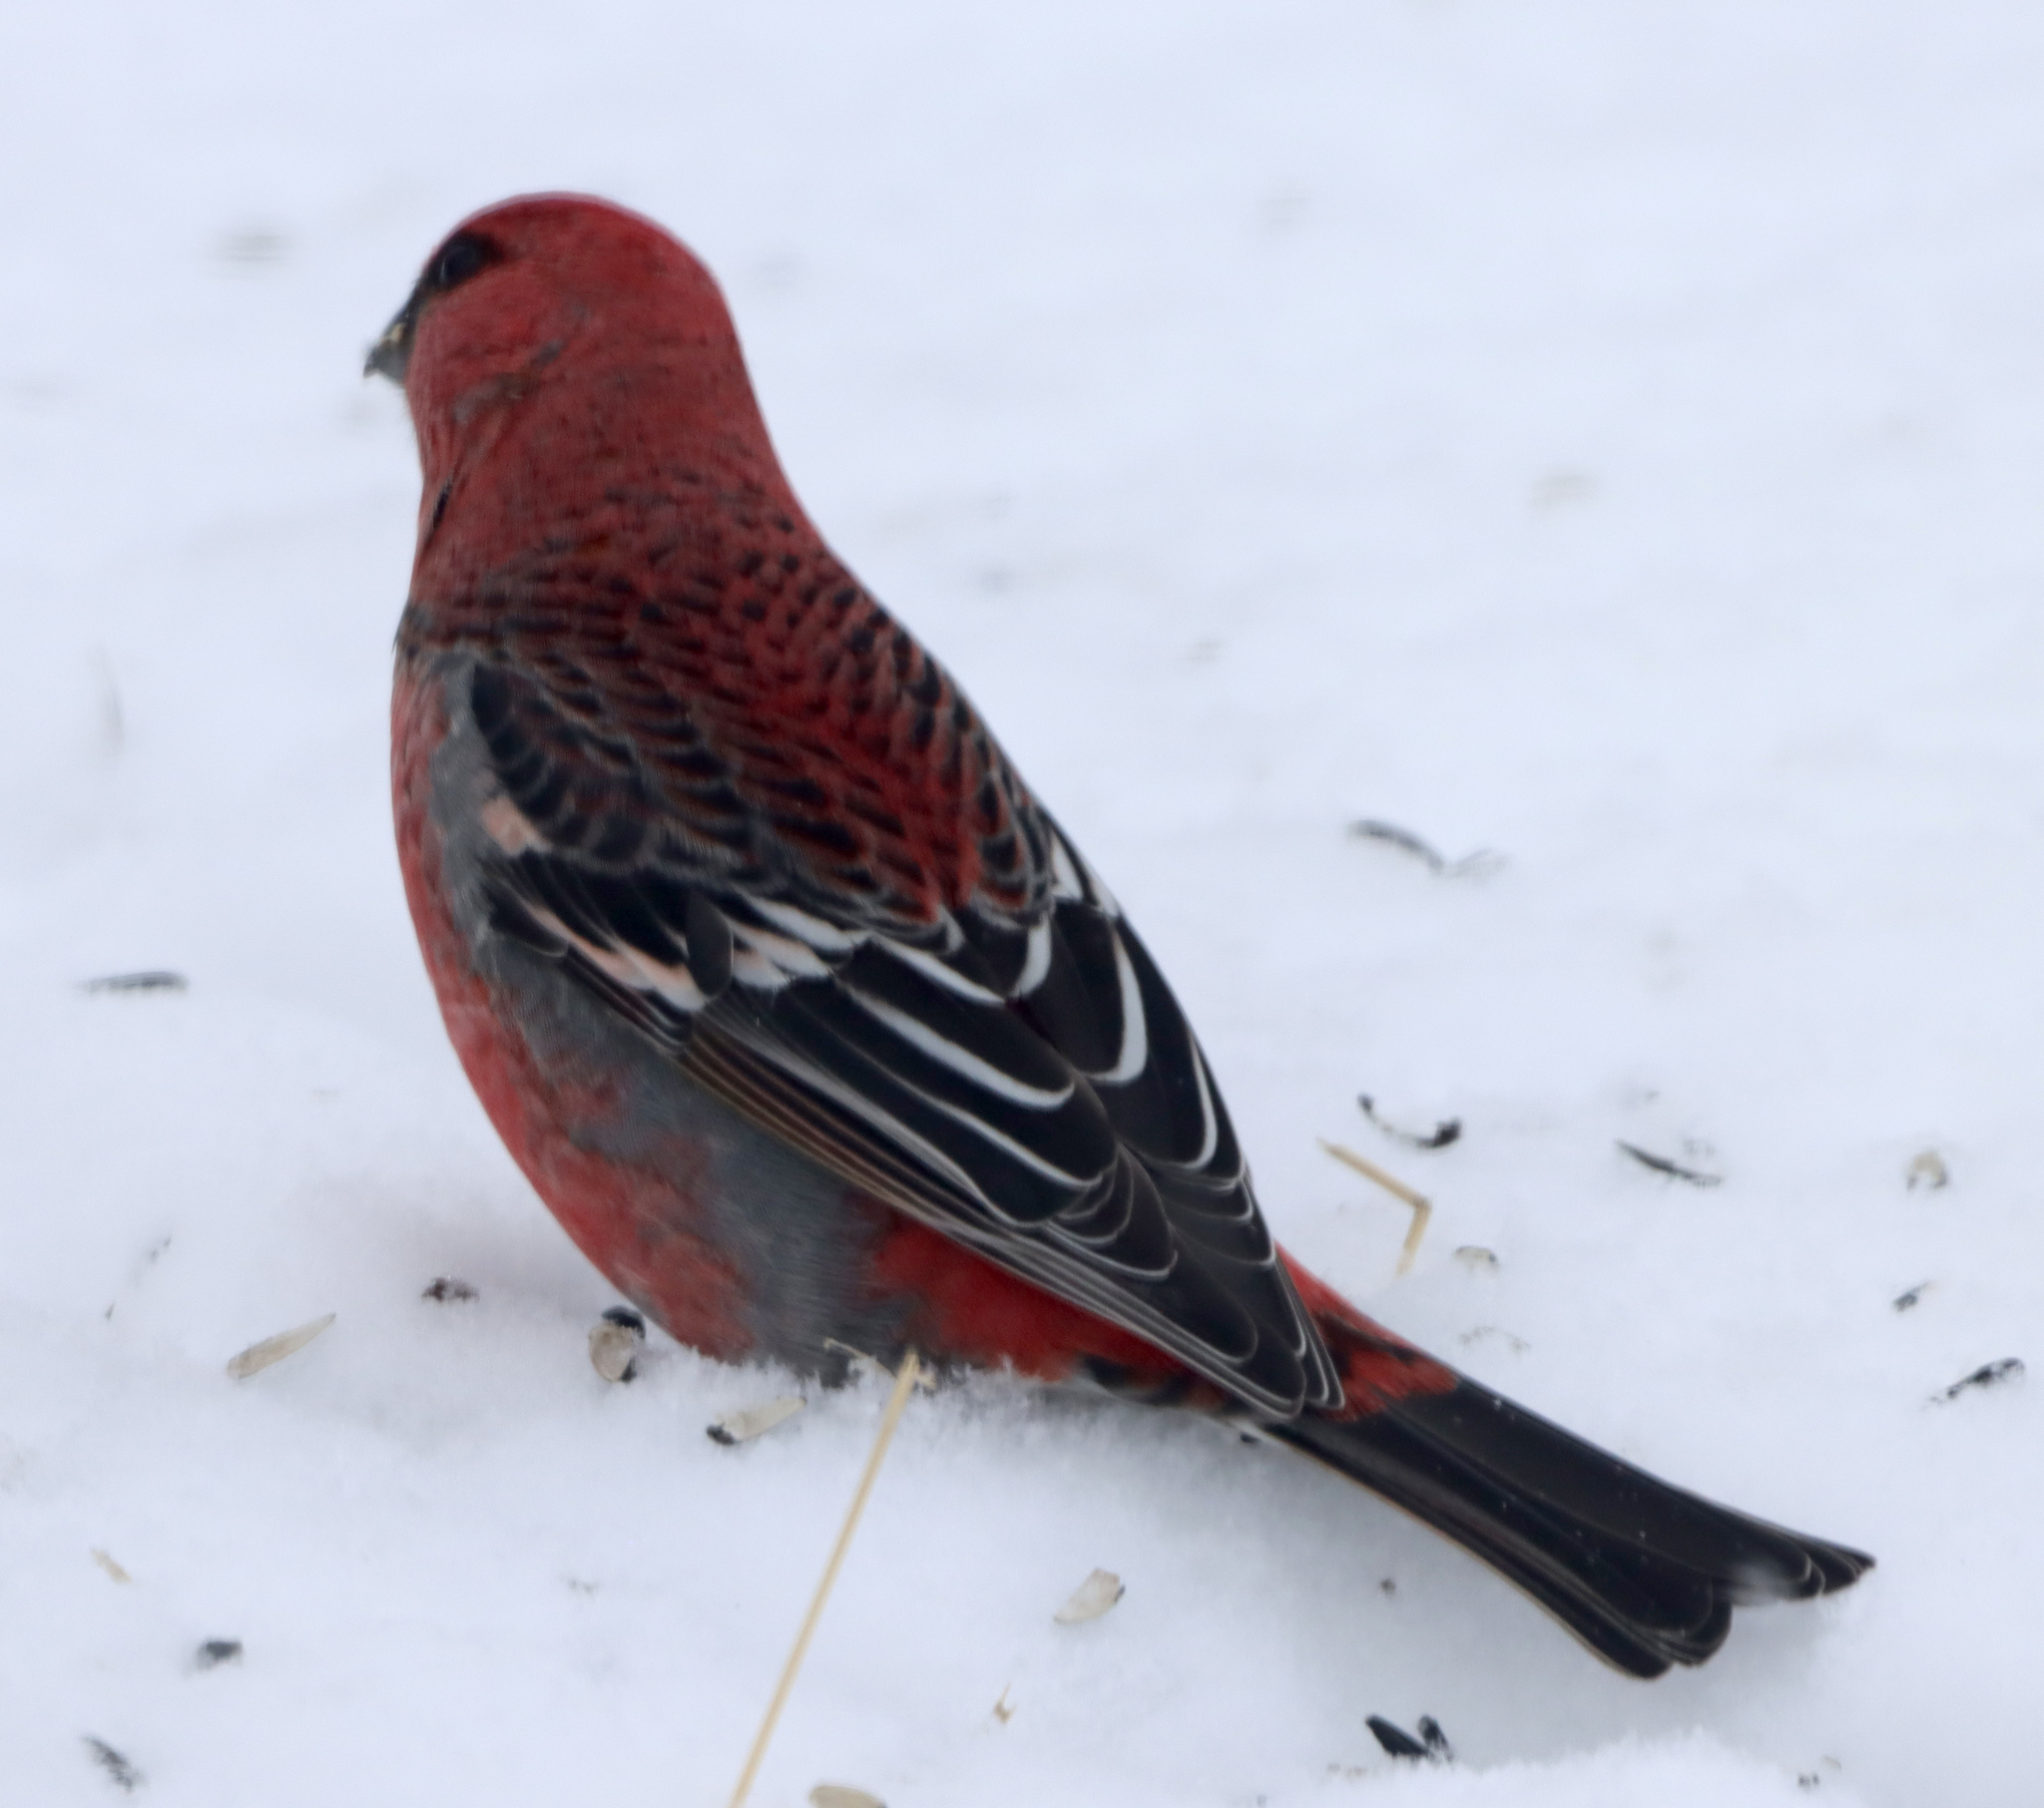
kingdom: Animalia
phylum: Chordata
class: Aves
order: Passeriformes
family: Fringillidae
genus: Pinicola
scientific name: Pinicola enucleator
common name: Pine grosbeak
